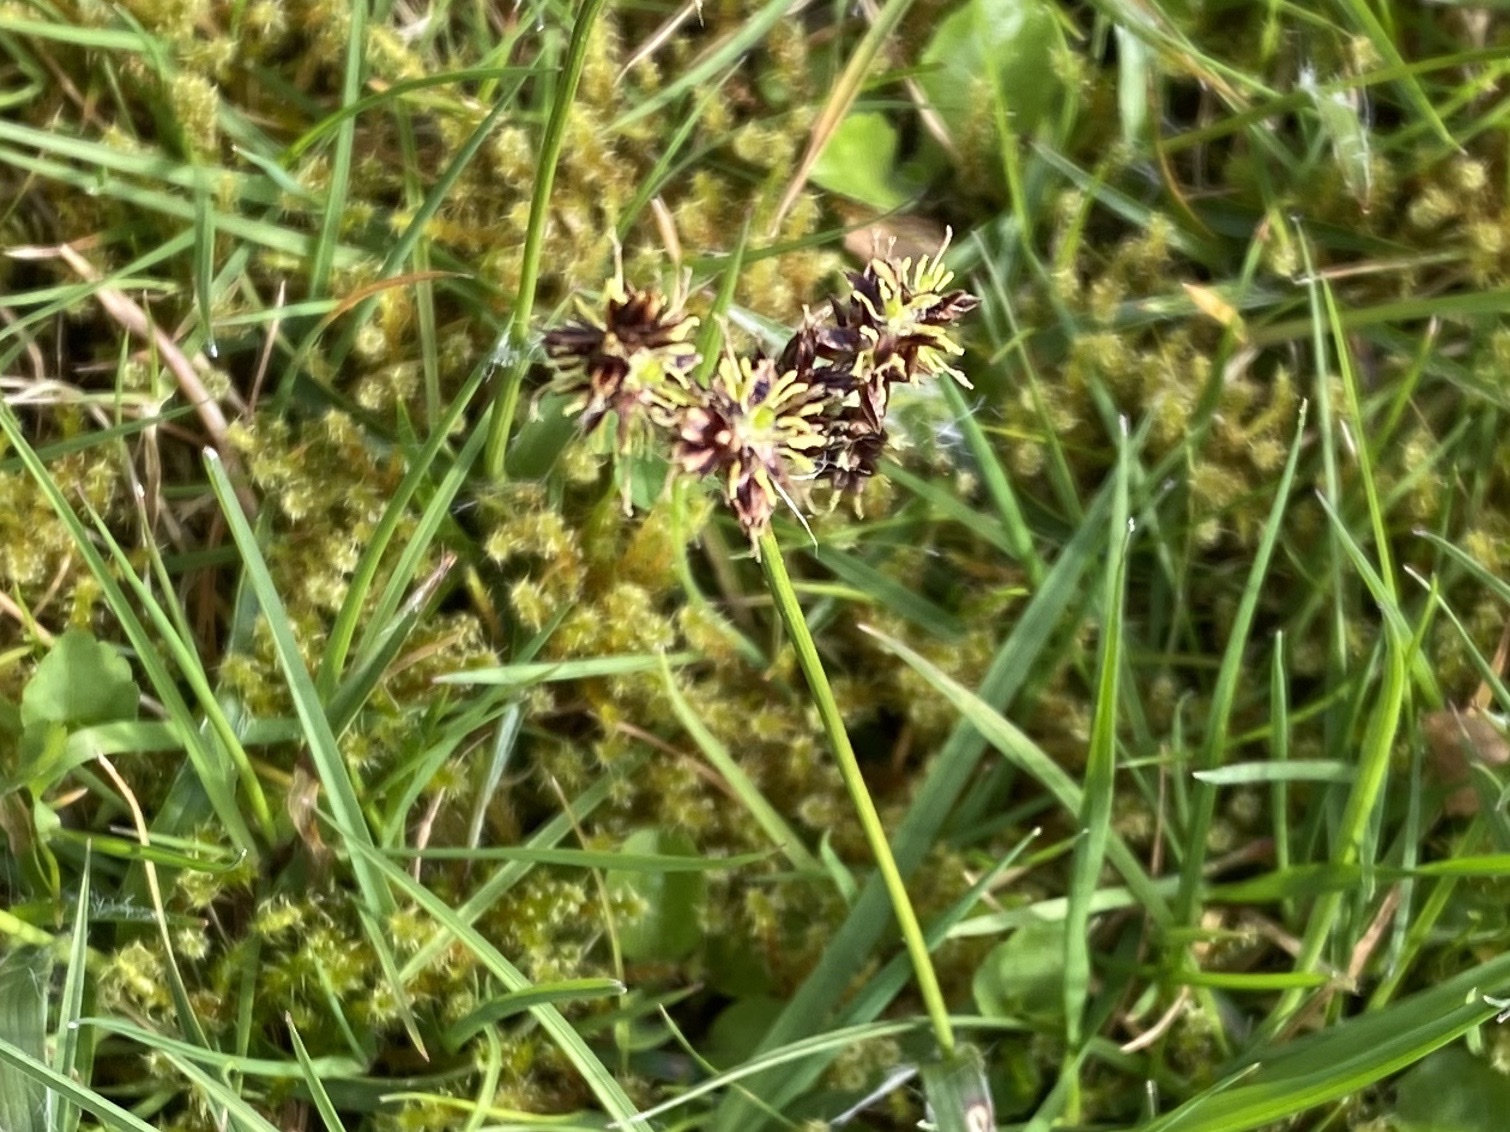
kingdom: Plantae
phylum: Tracheophyta
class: Liliopsida
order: Poales
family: Juncaceae
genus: Luzula
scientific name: Luzula campestris
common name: Field wood-rush
